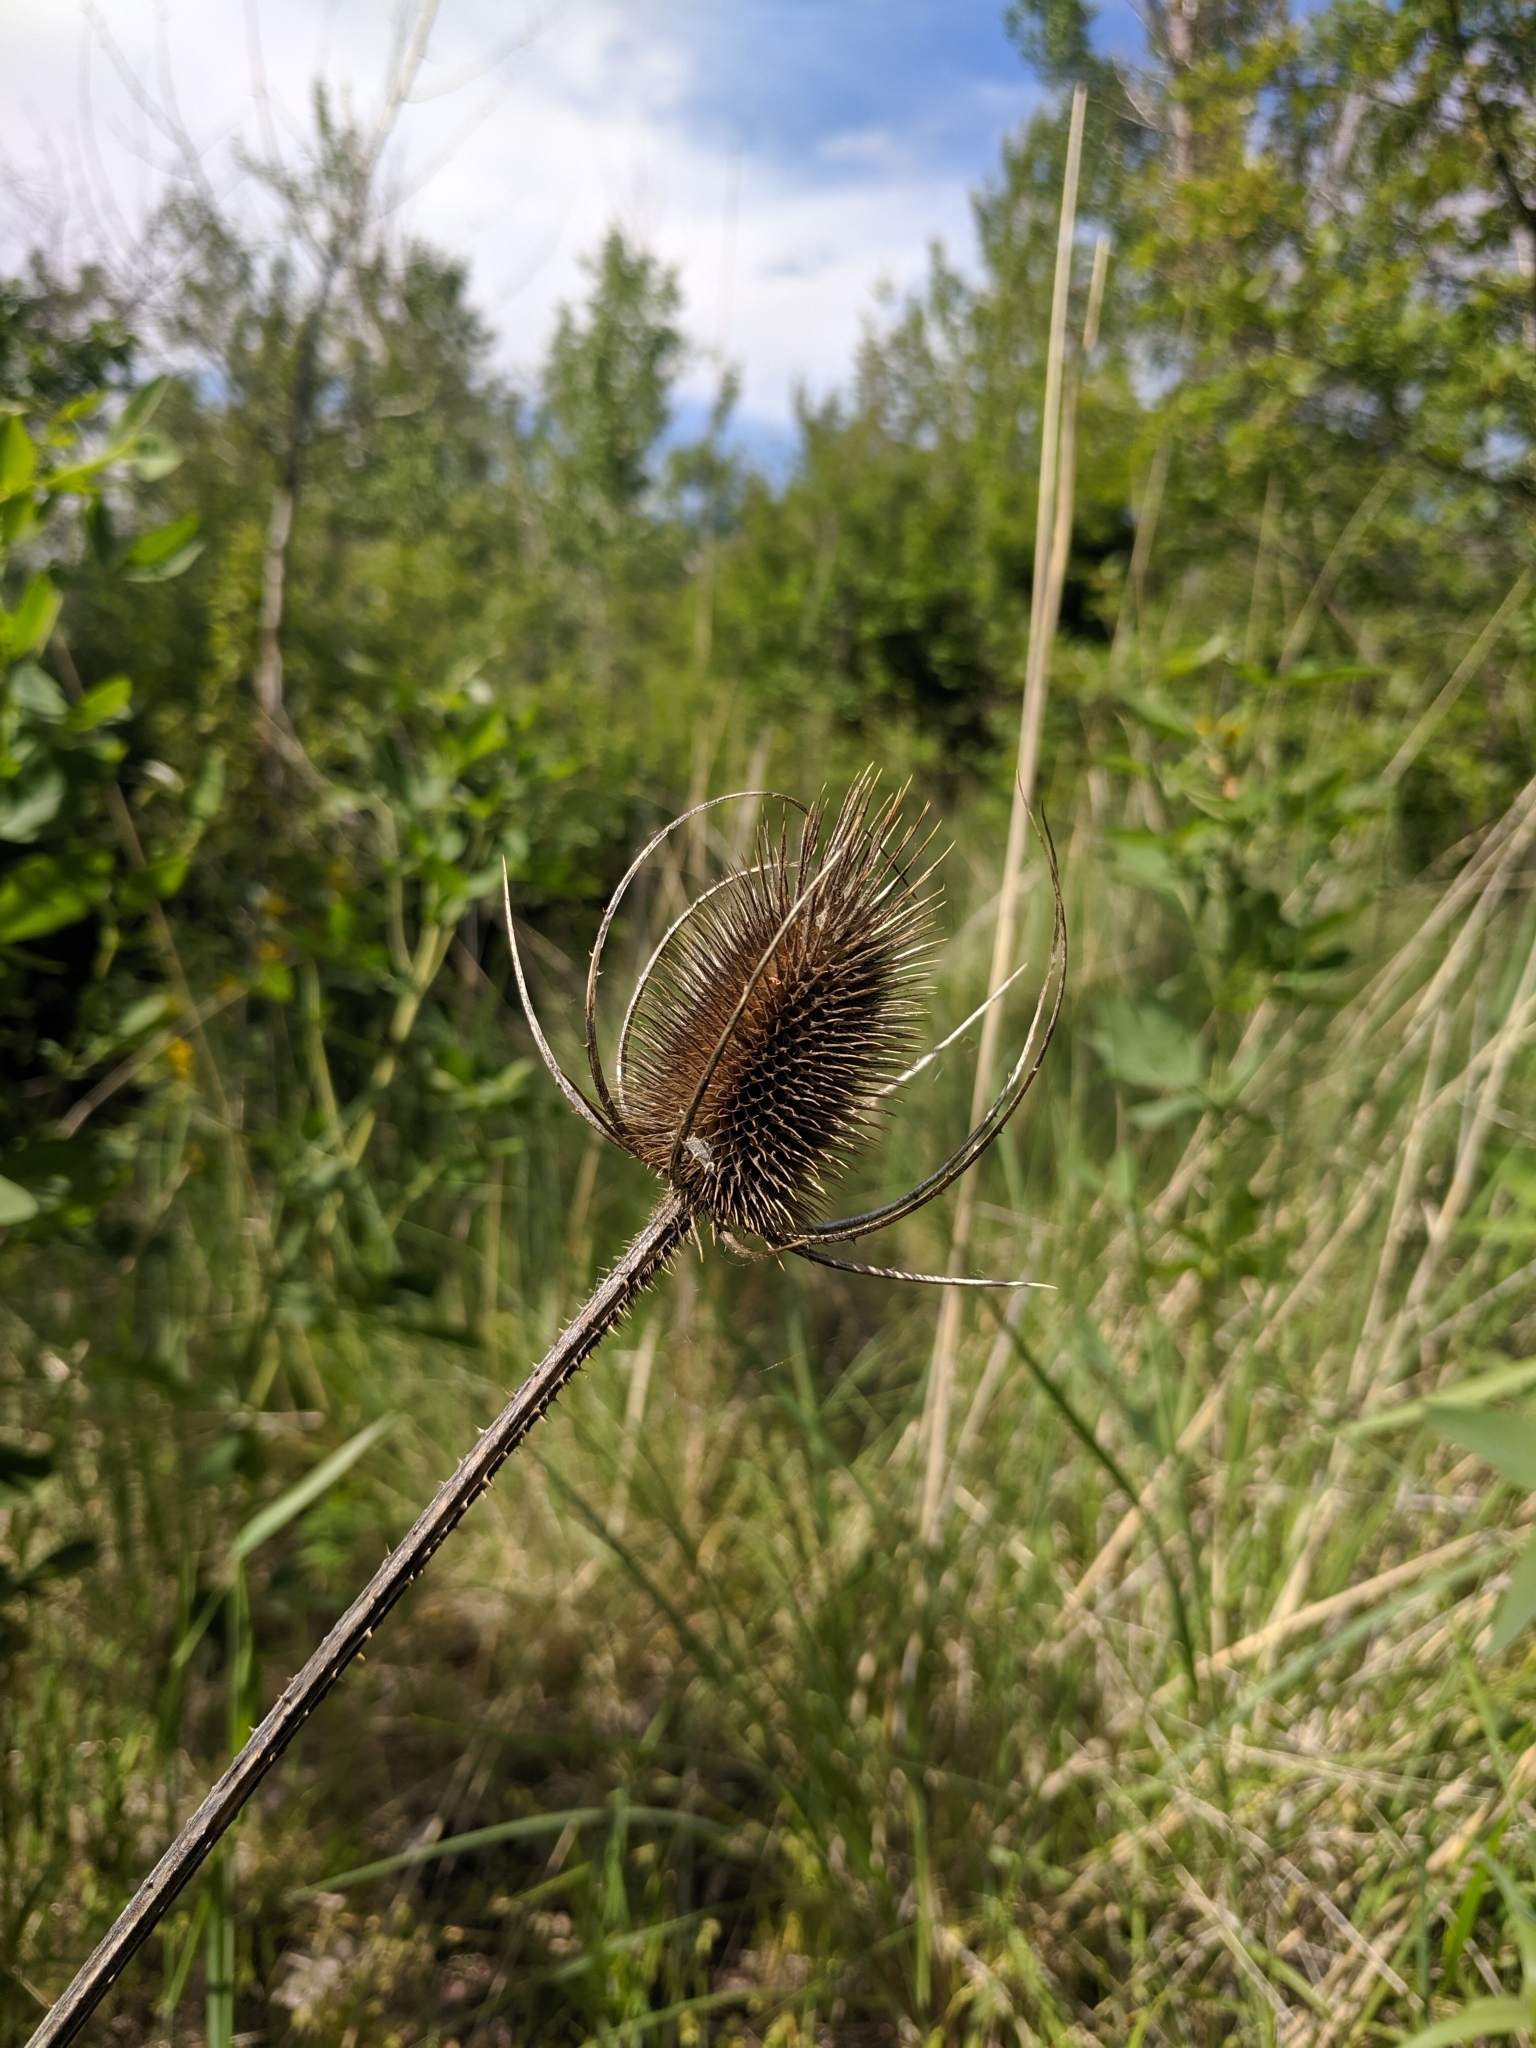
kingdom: Plantae
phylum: Tracheophyta
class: Magnoliopsida
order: Dipsacales
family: Caprifoliaceae
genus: Dipsacus
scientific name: Dipsacus fullonum
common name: Teasel
